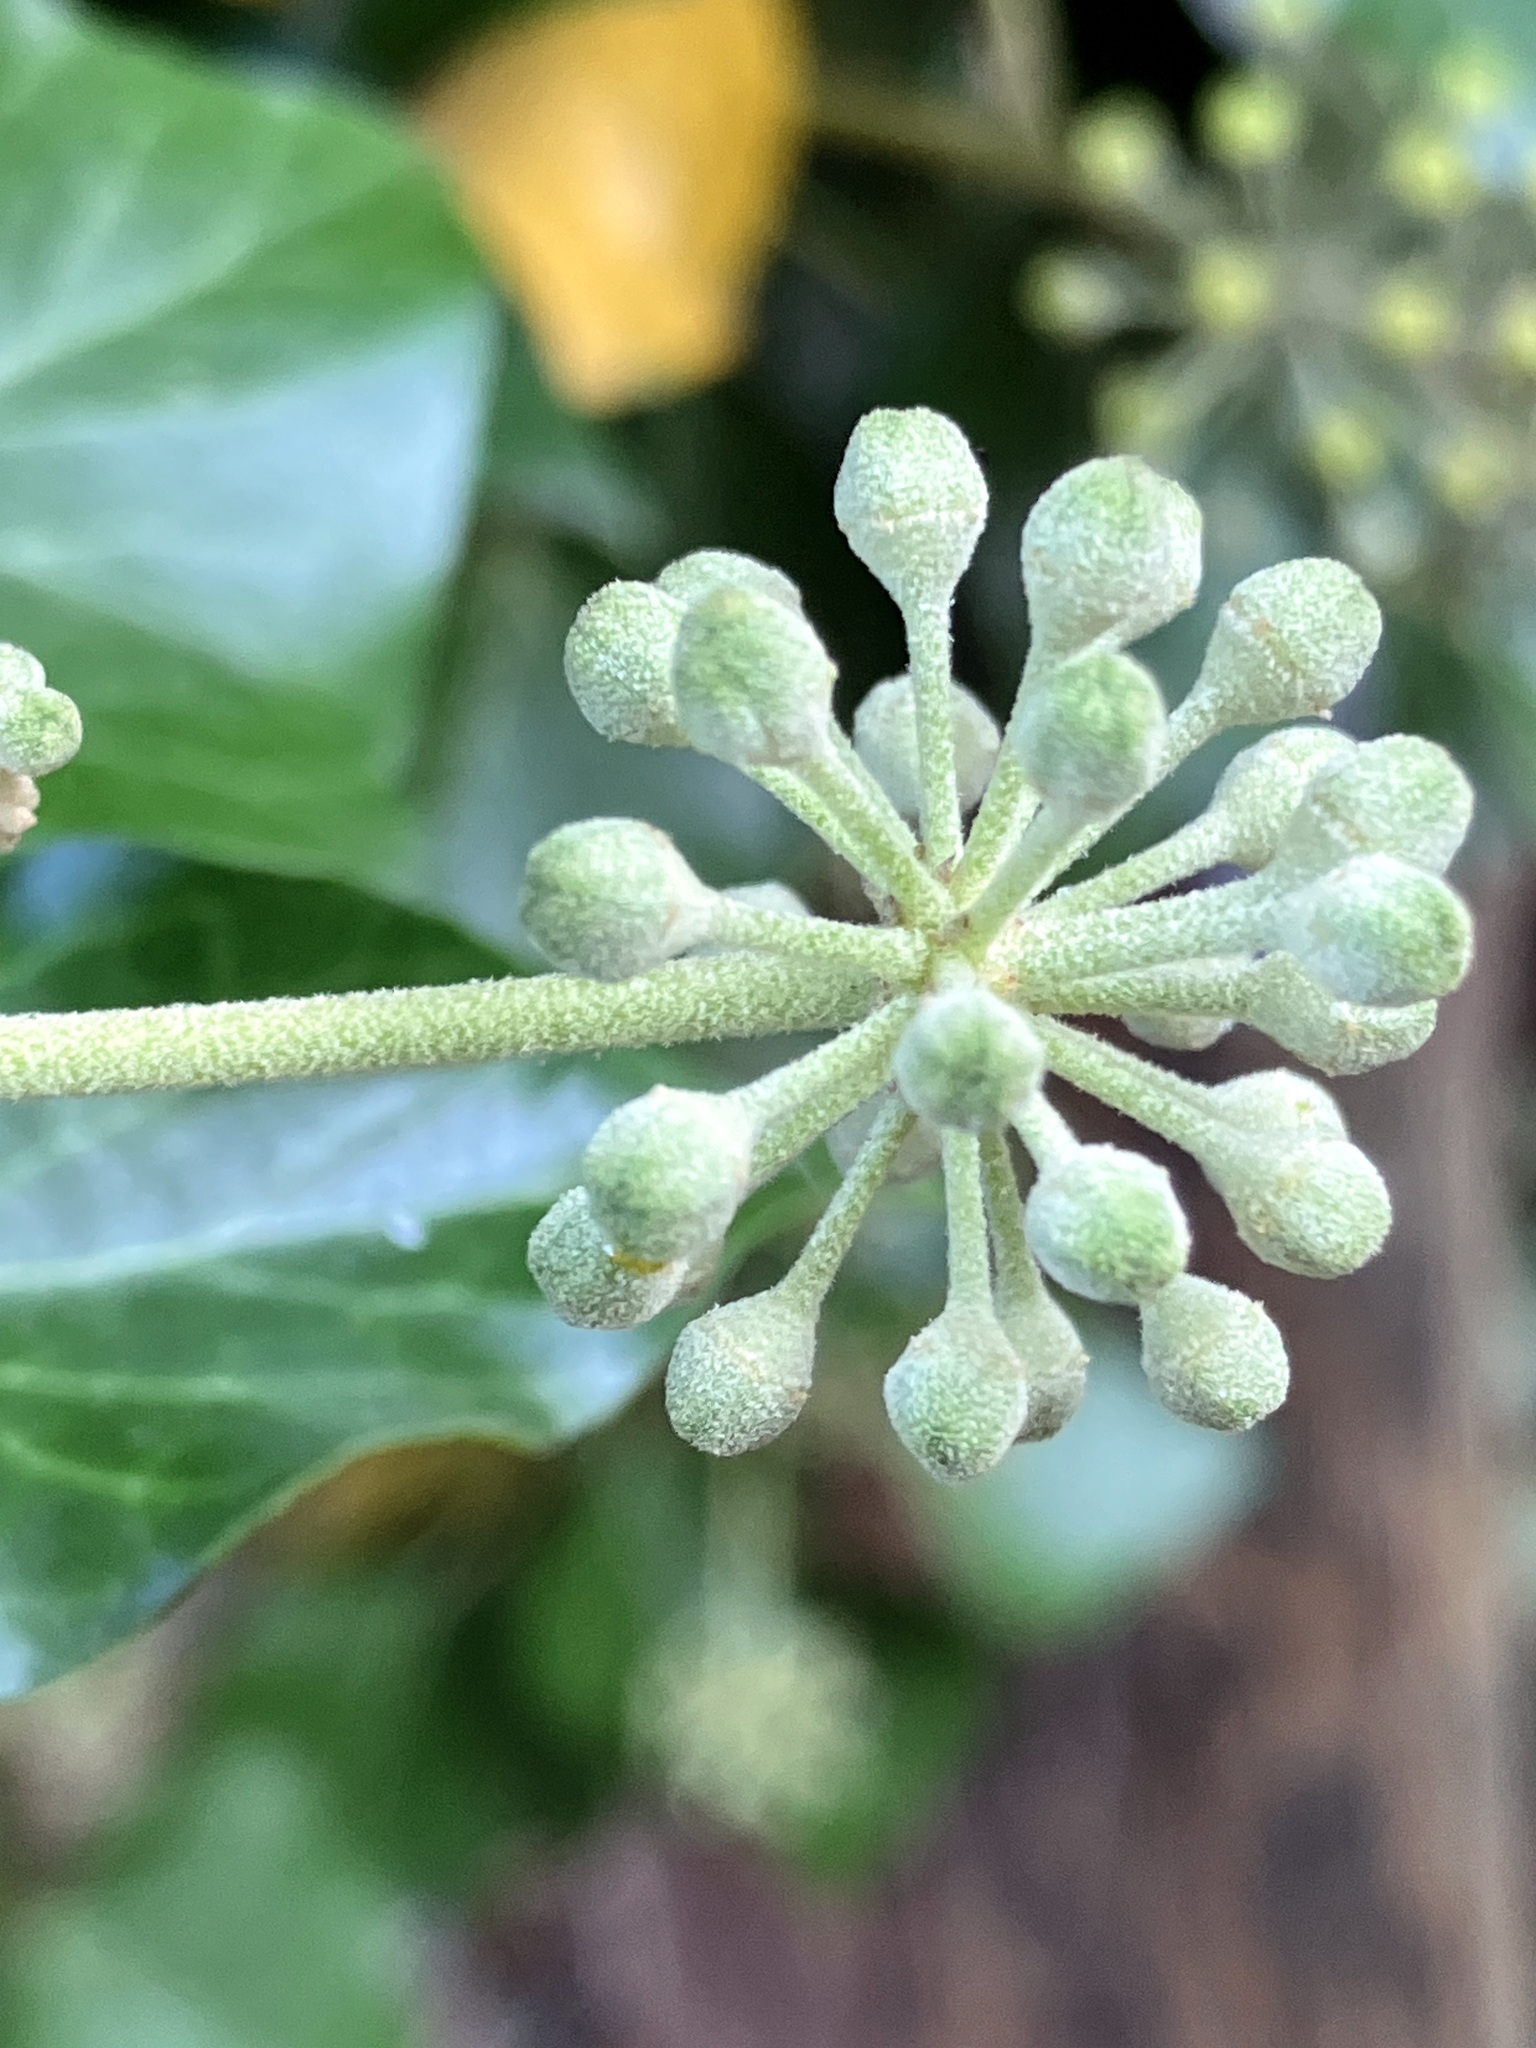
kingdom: Plantae
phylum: Tracheophyta
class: Magnoliopsida
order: Apiales
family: Araliaceae
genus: Hedera
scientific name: Hedera helix
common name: Ivy
